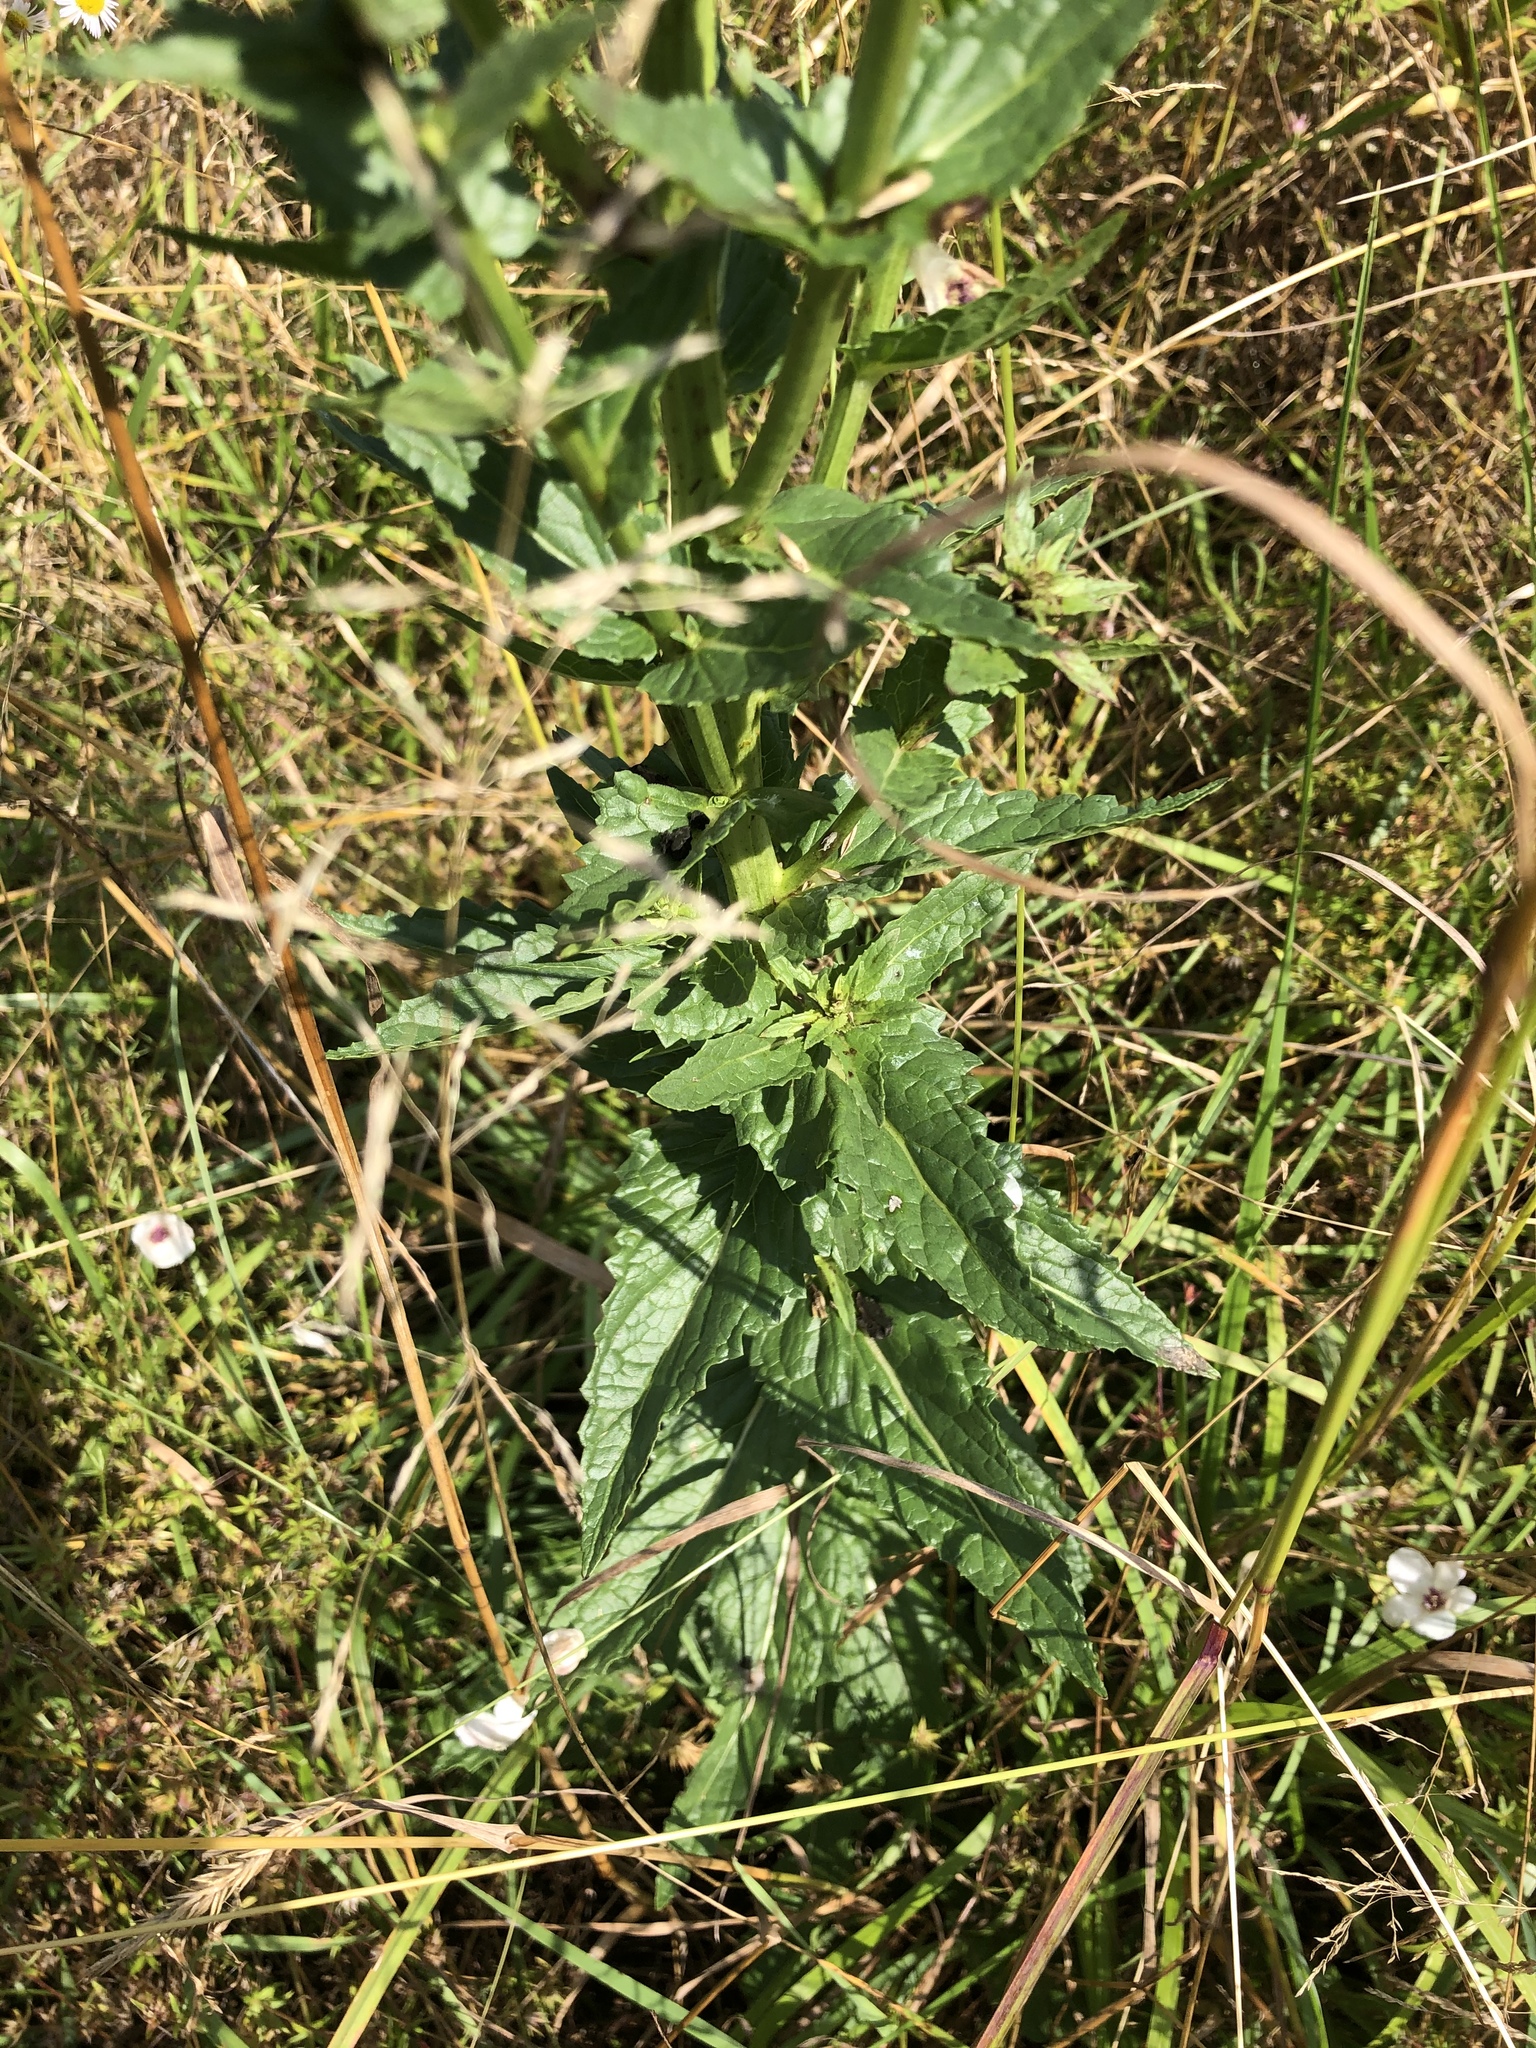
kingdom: Plantae
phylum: Tracheophyta
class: Magnoliopsida
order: Lamiales
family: Scrophulariaceae
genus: Verbascum
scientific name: Verbascum blattaria
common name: Moth mullein
